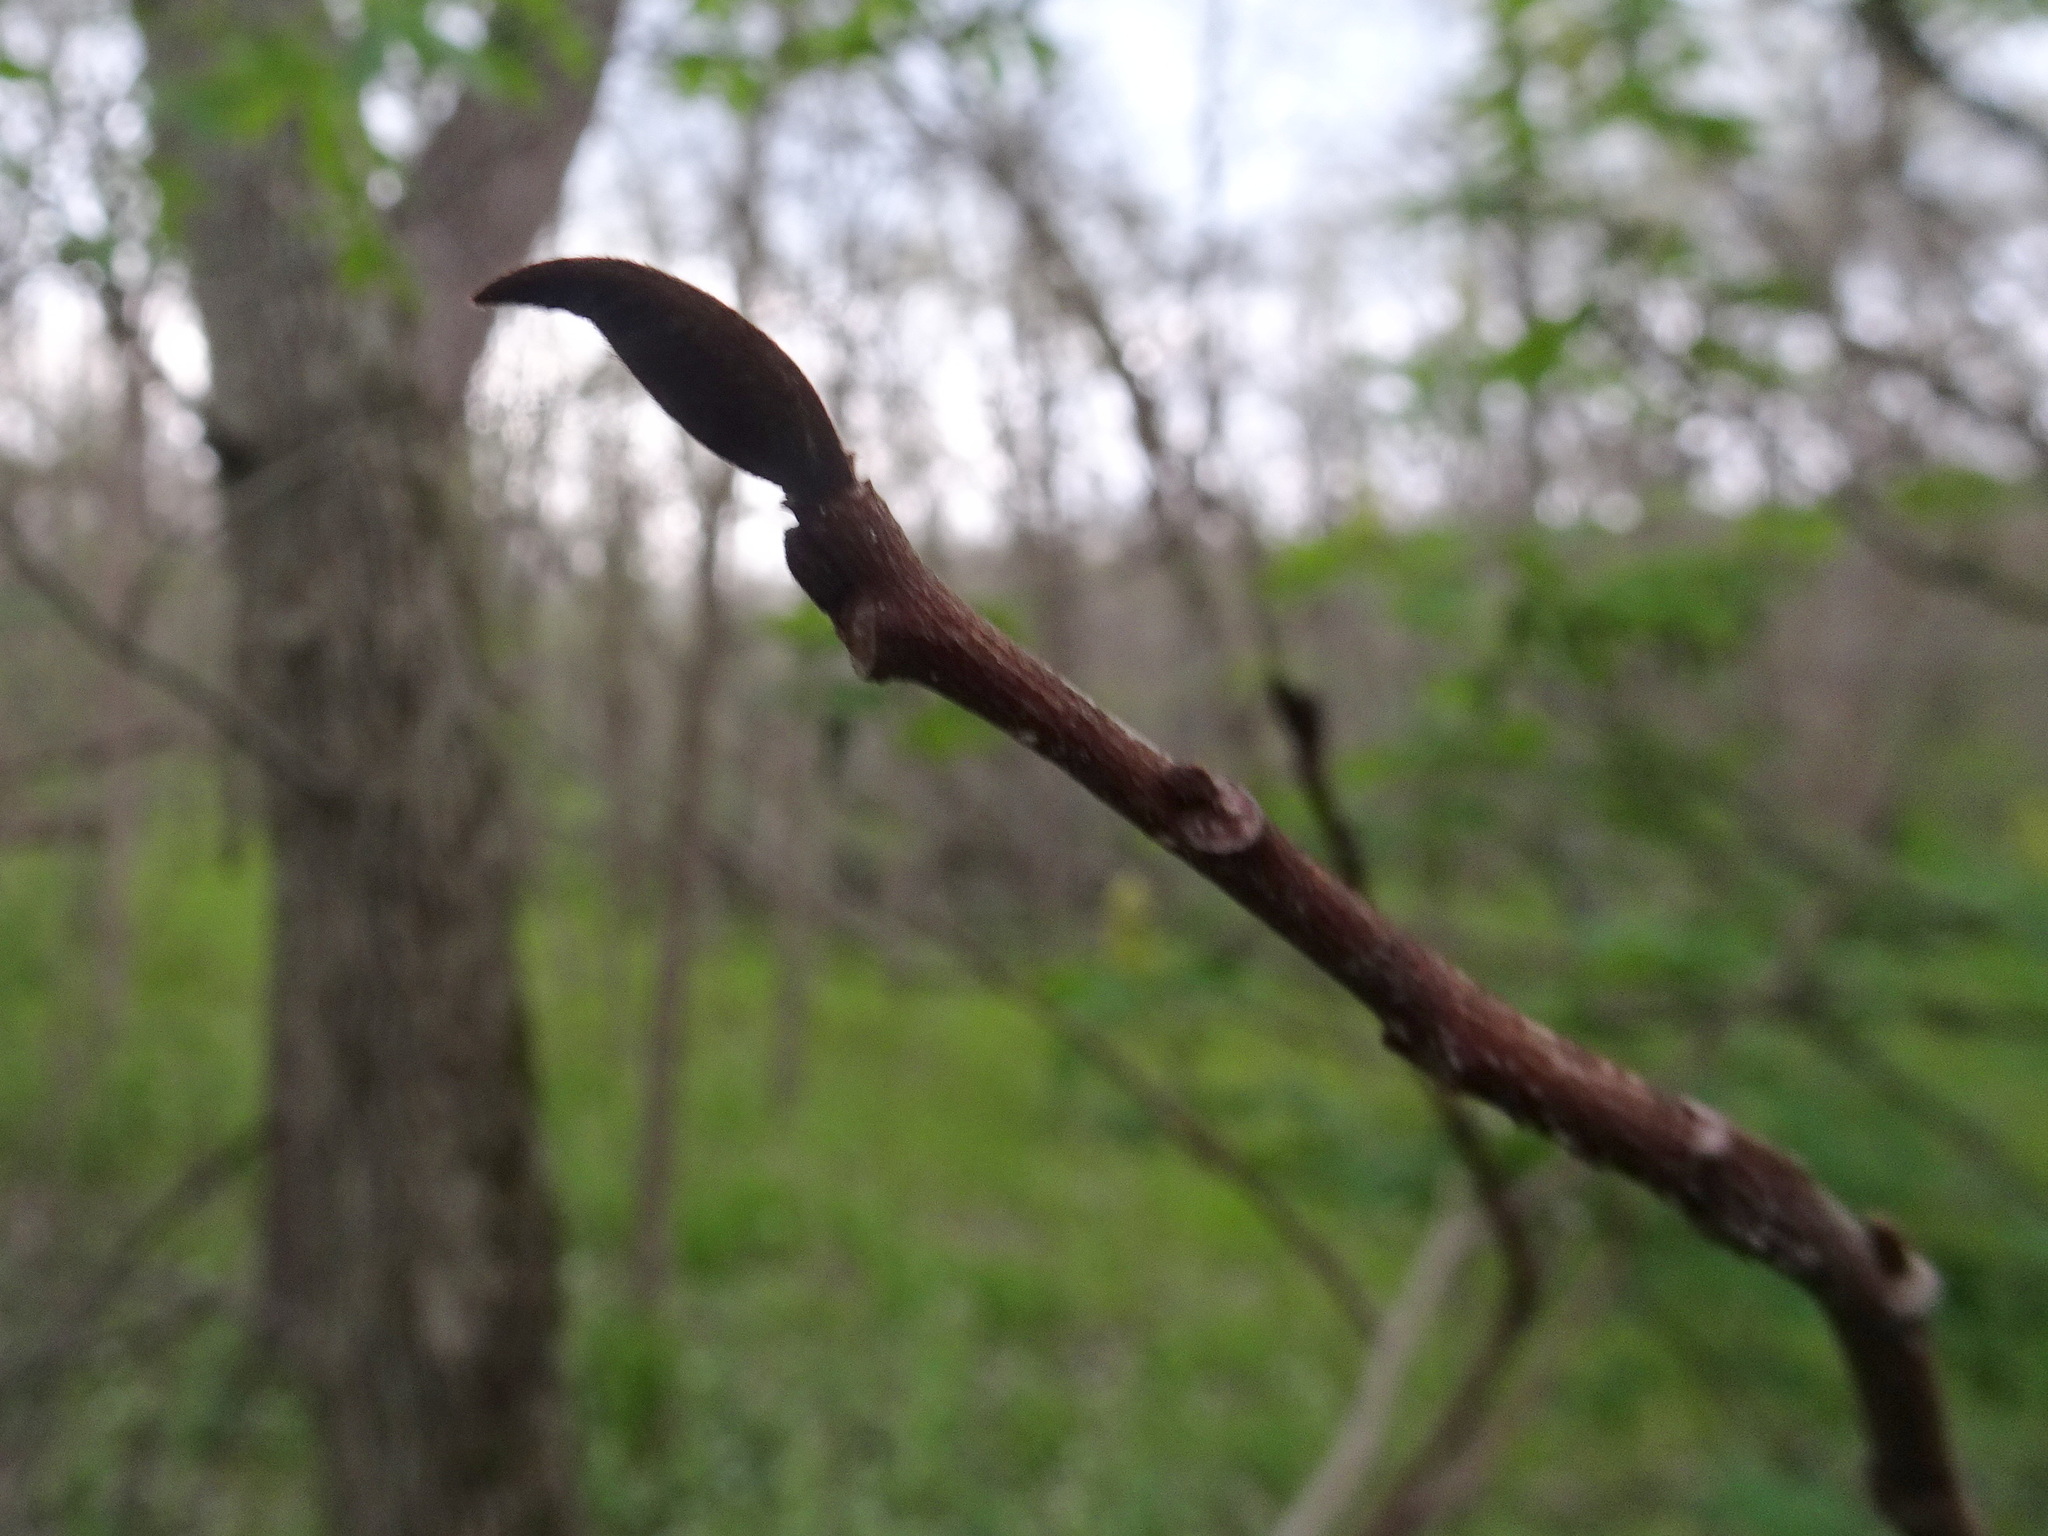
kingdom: Plantae
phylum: Tracheophyta
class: Magnoliopsida
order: Magnoliales
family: Annonaceae
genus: Asimina
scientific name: Asimina triloba
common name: Dog-banana
